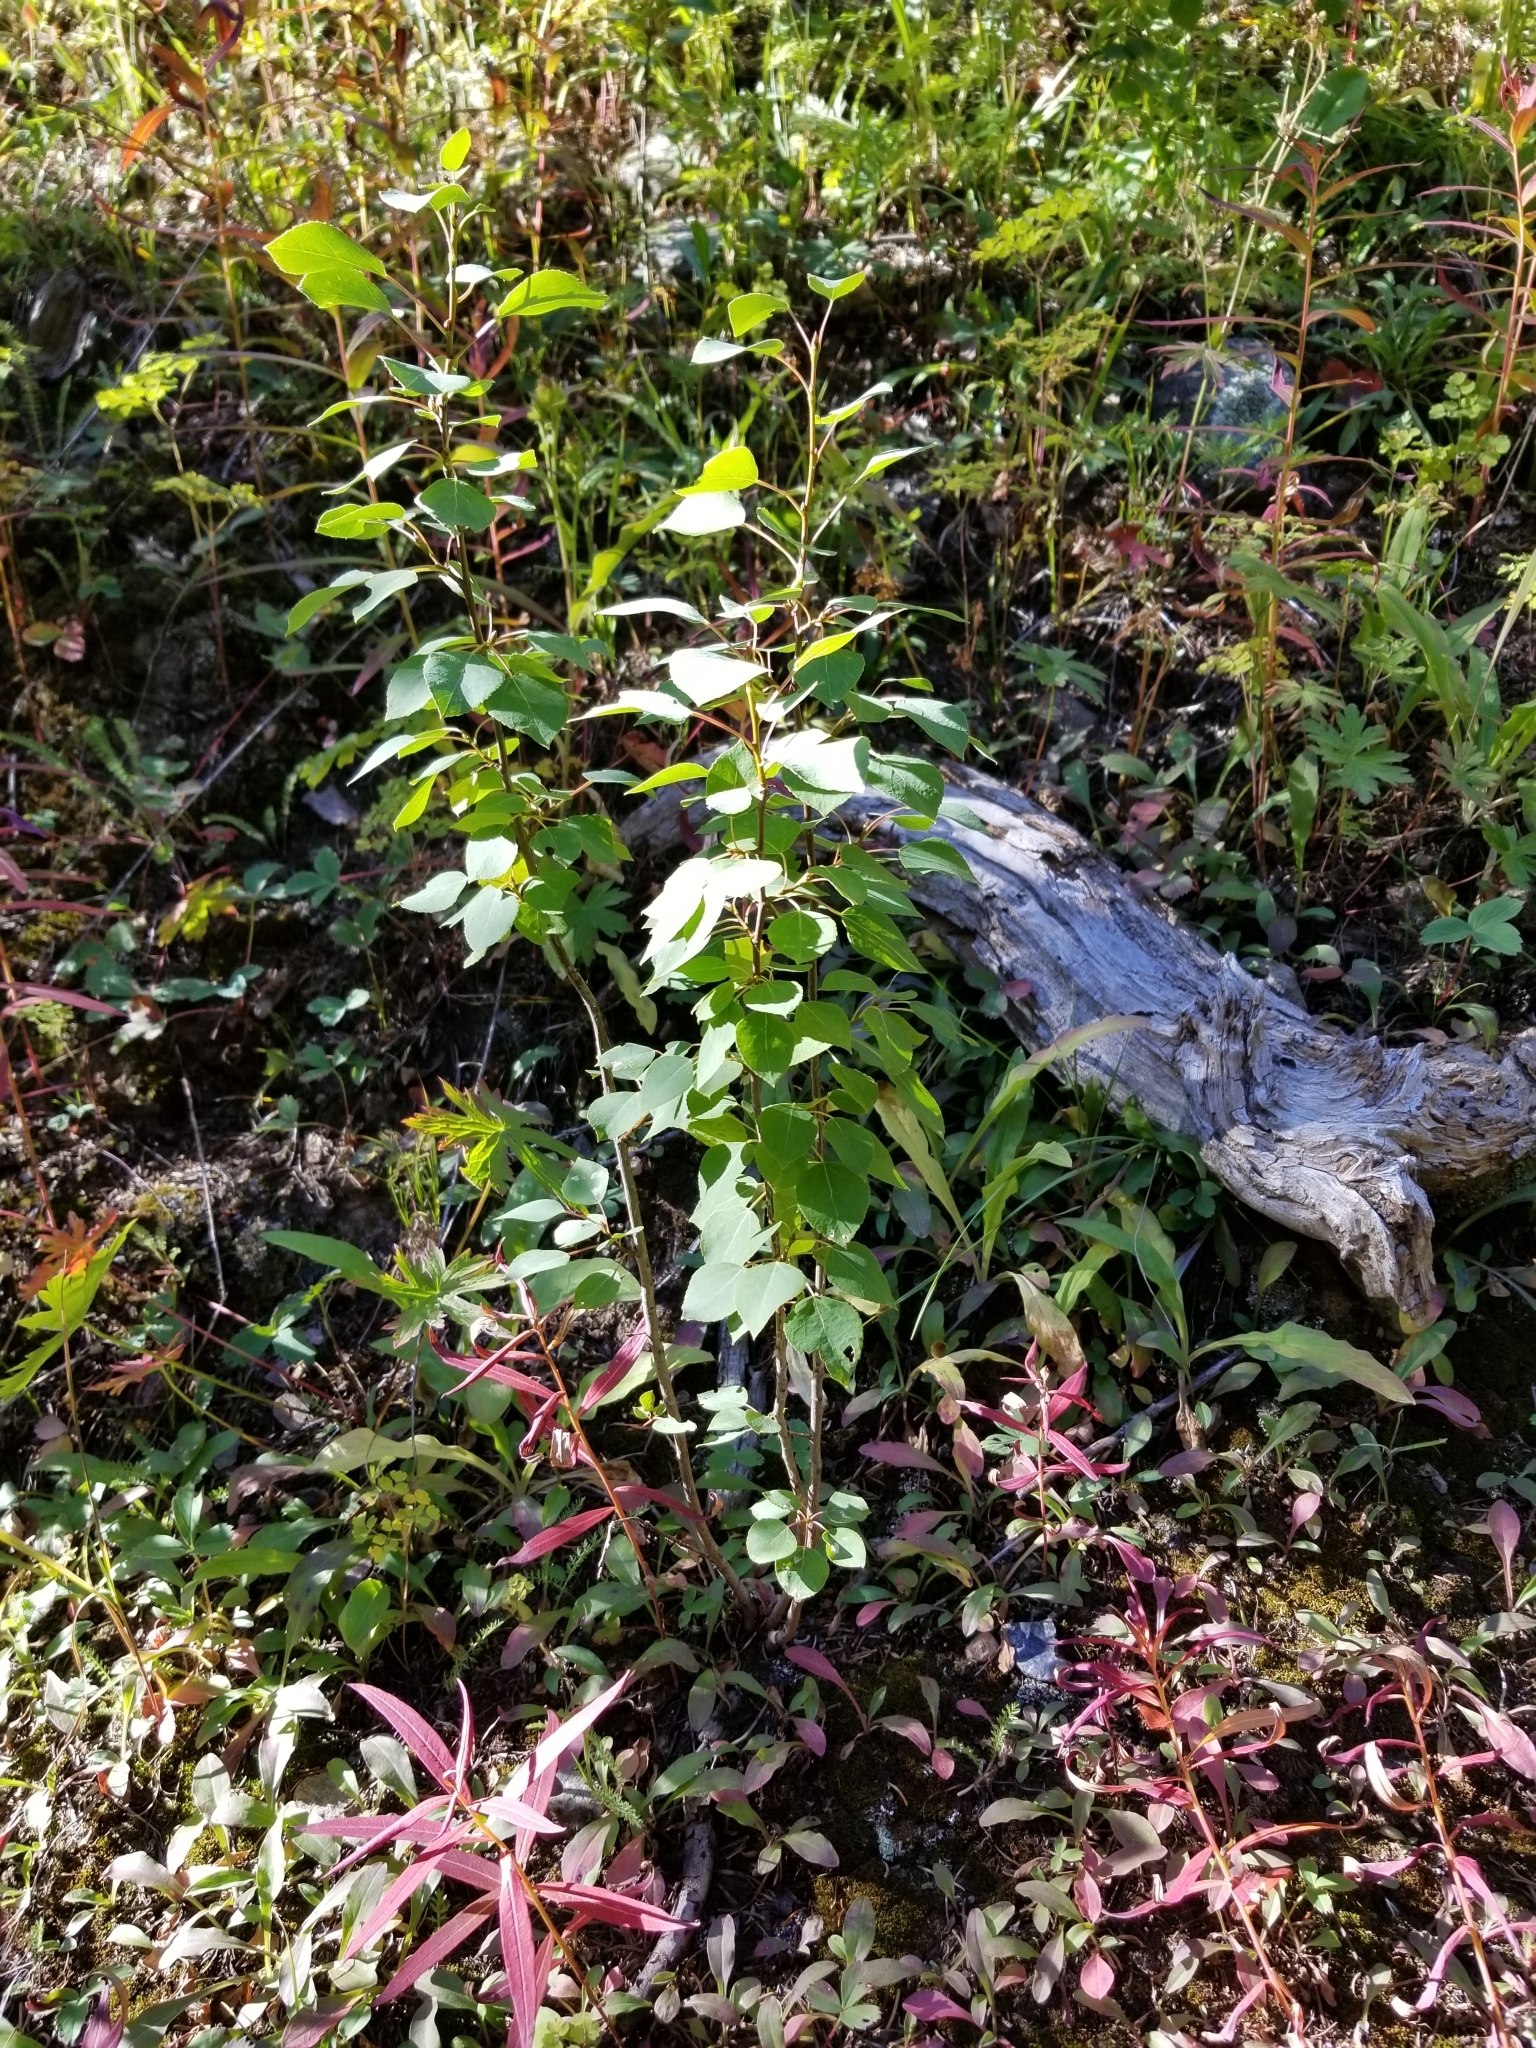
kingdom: Plantae
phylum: Tracheophyta
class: Magnoliopsida
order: Malpighiales
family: Salicaceae
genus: Populus
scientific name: Populus tremuloides
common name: Quaking aspen
